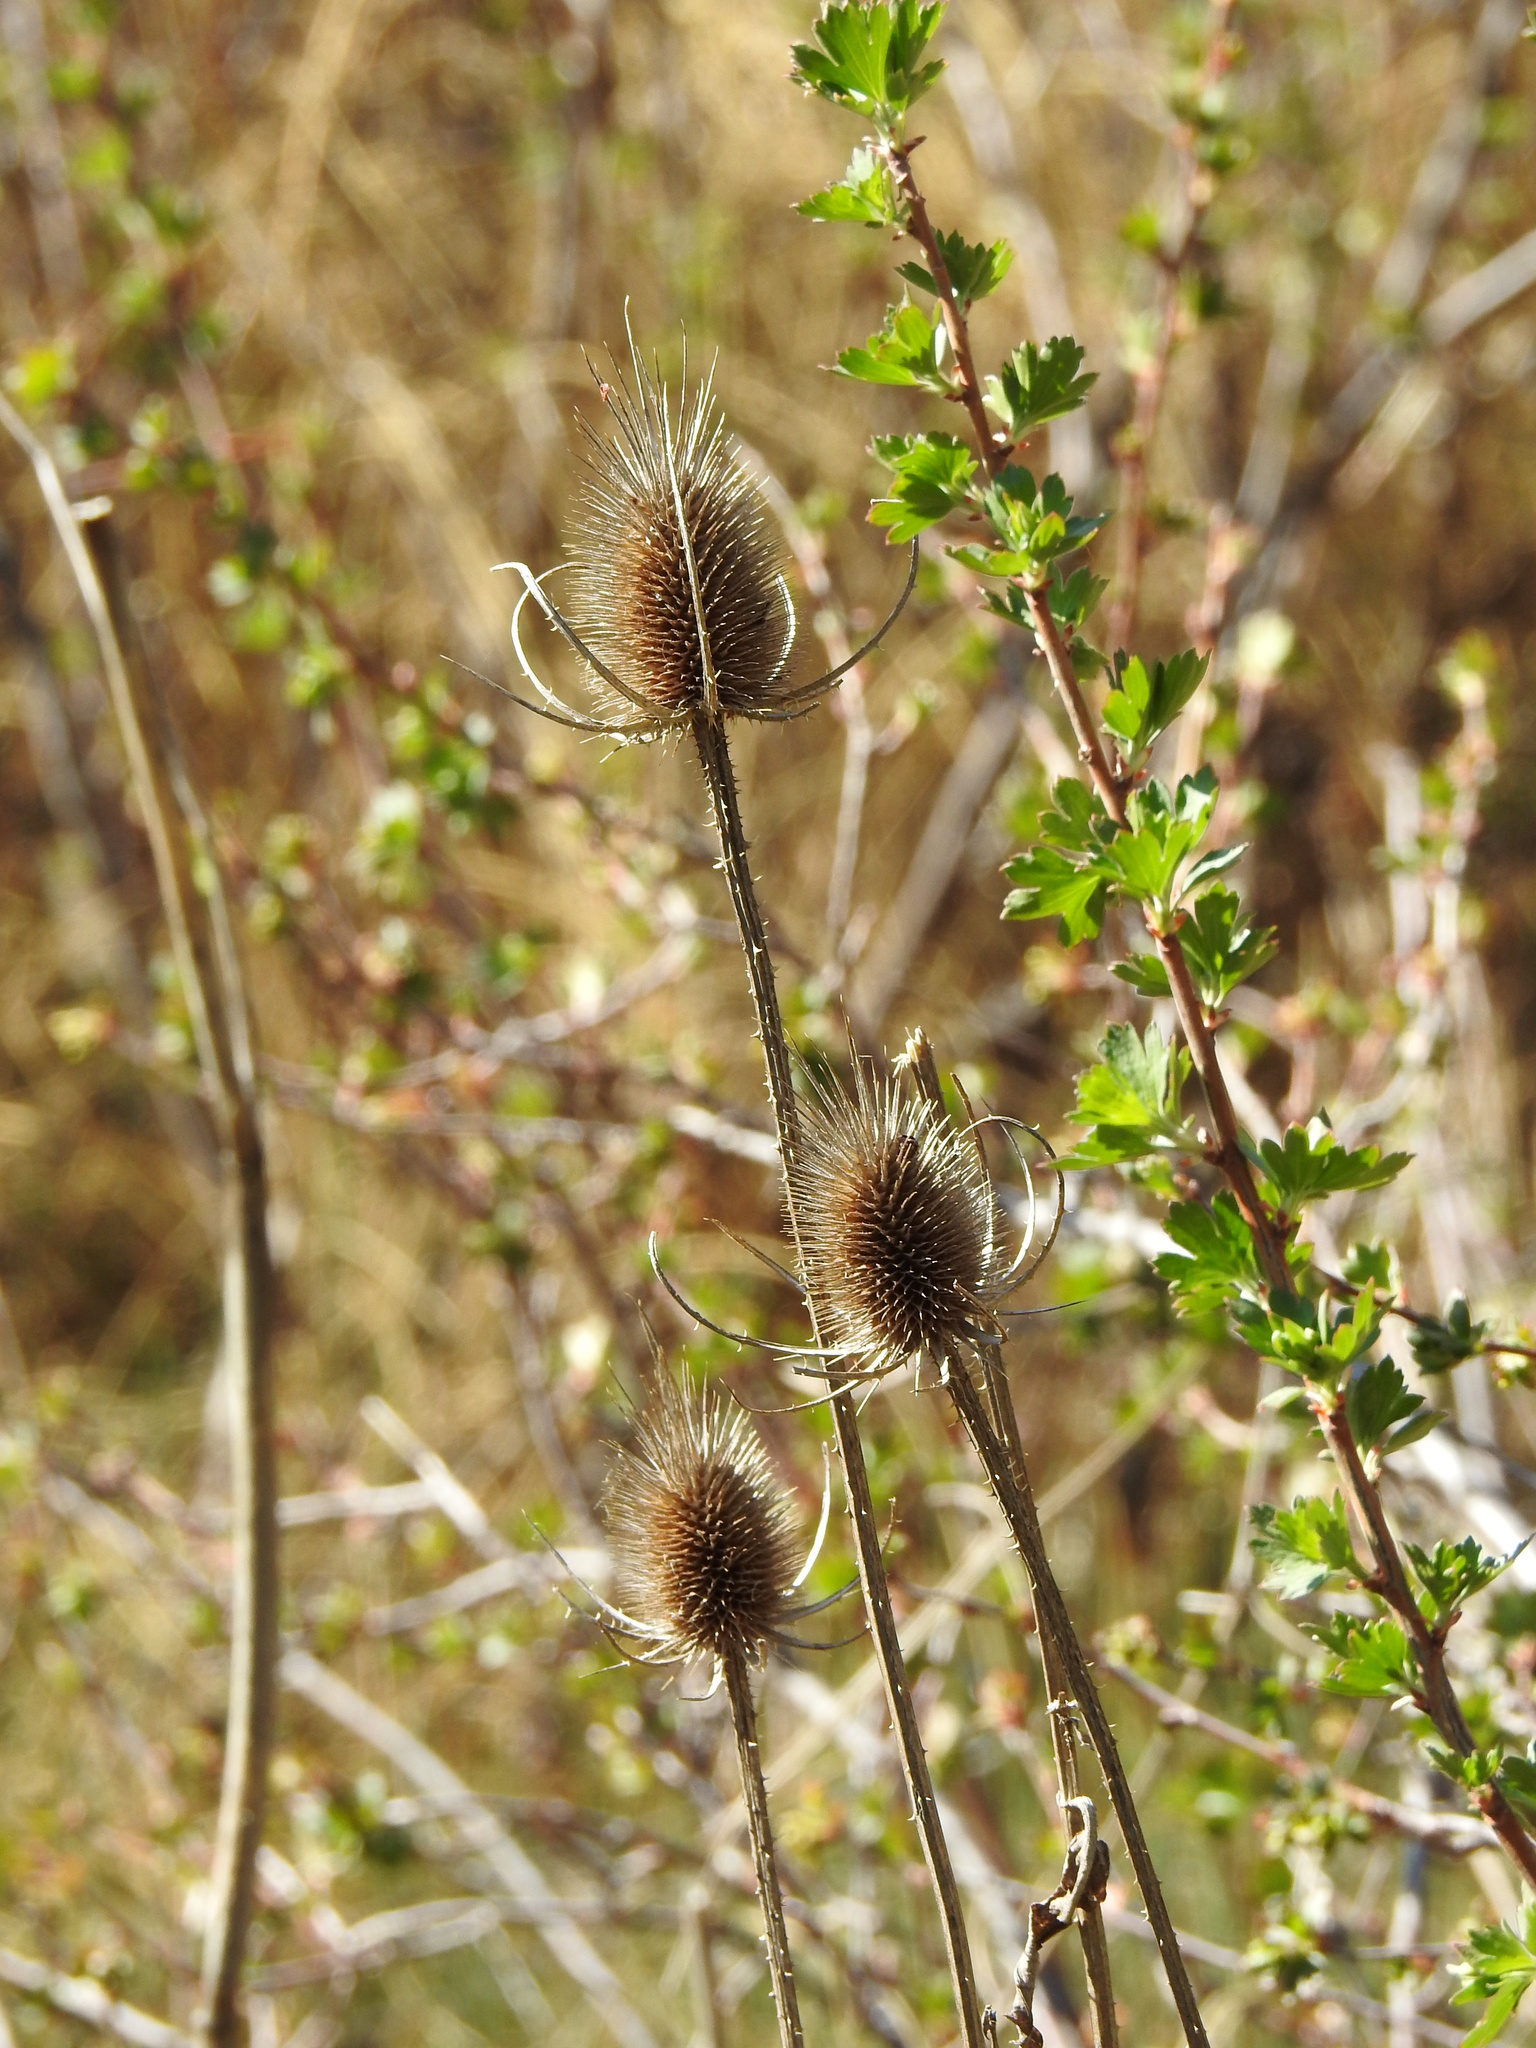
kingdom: Plantae
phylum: Tracheophyta
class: Magnoliopsida
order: Dipsacales
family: Caprifoliaceae
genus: Dipsacus
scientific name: Dipsacus fullonum
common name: Teasel
